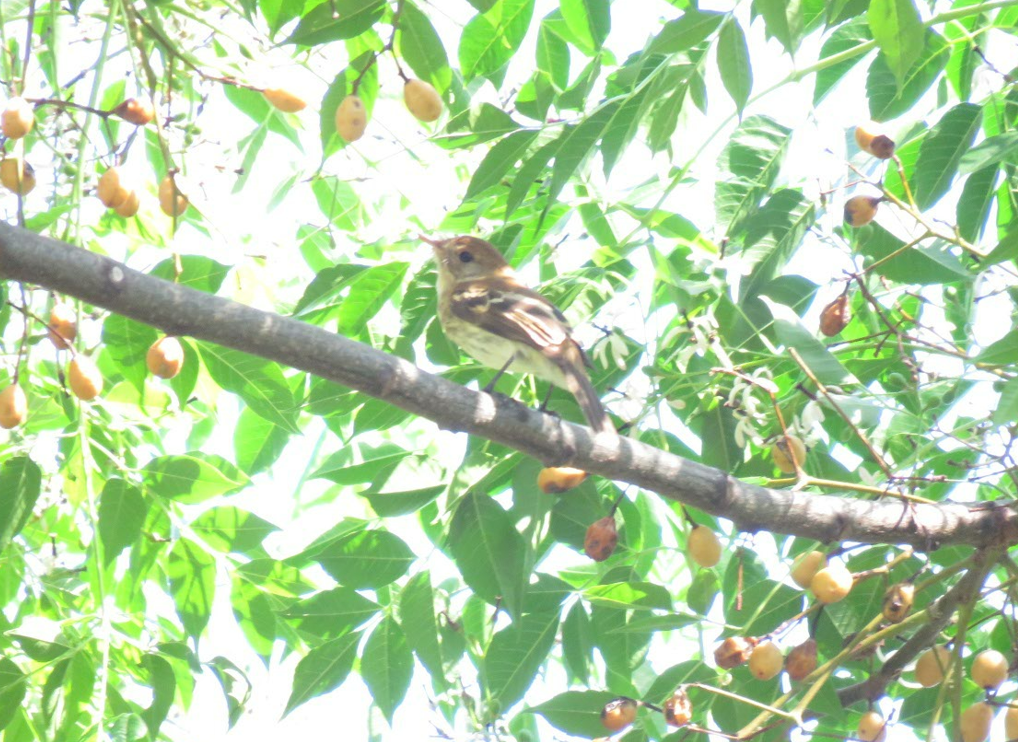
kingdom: Animalia
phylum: Chordata
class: Aves
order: Passeriformes
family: Tyrannidae
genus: Myiophobus
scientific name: Myiophobus fasciatus
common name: Bran-colored flycatcher
